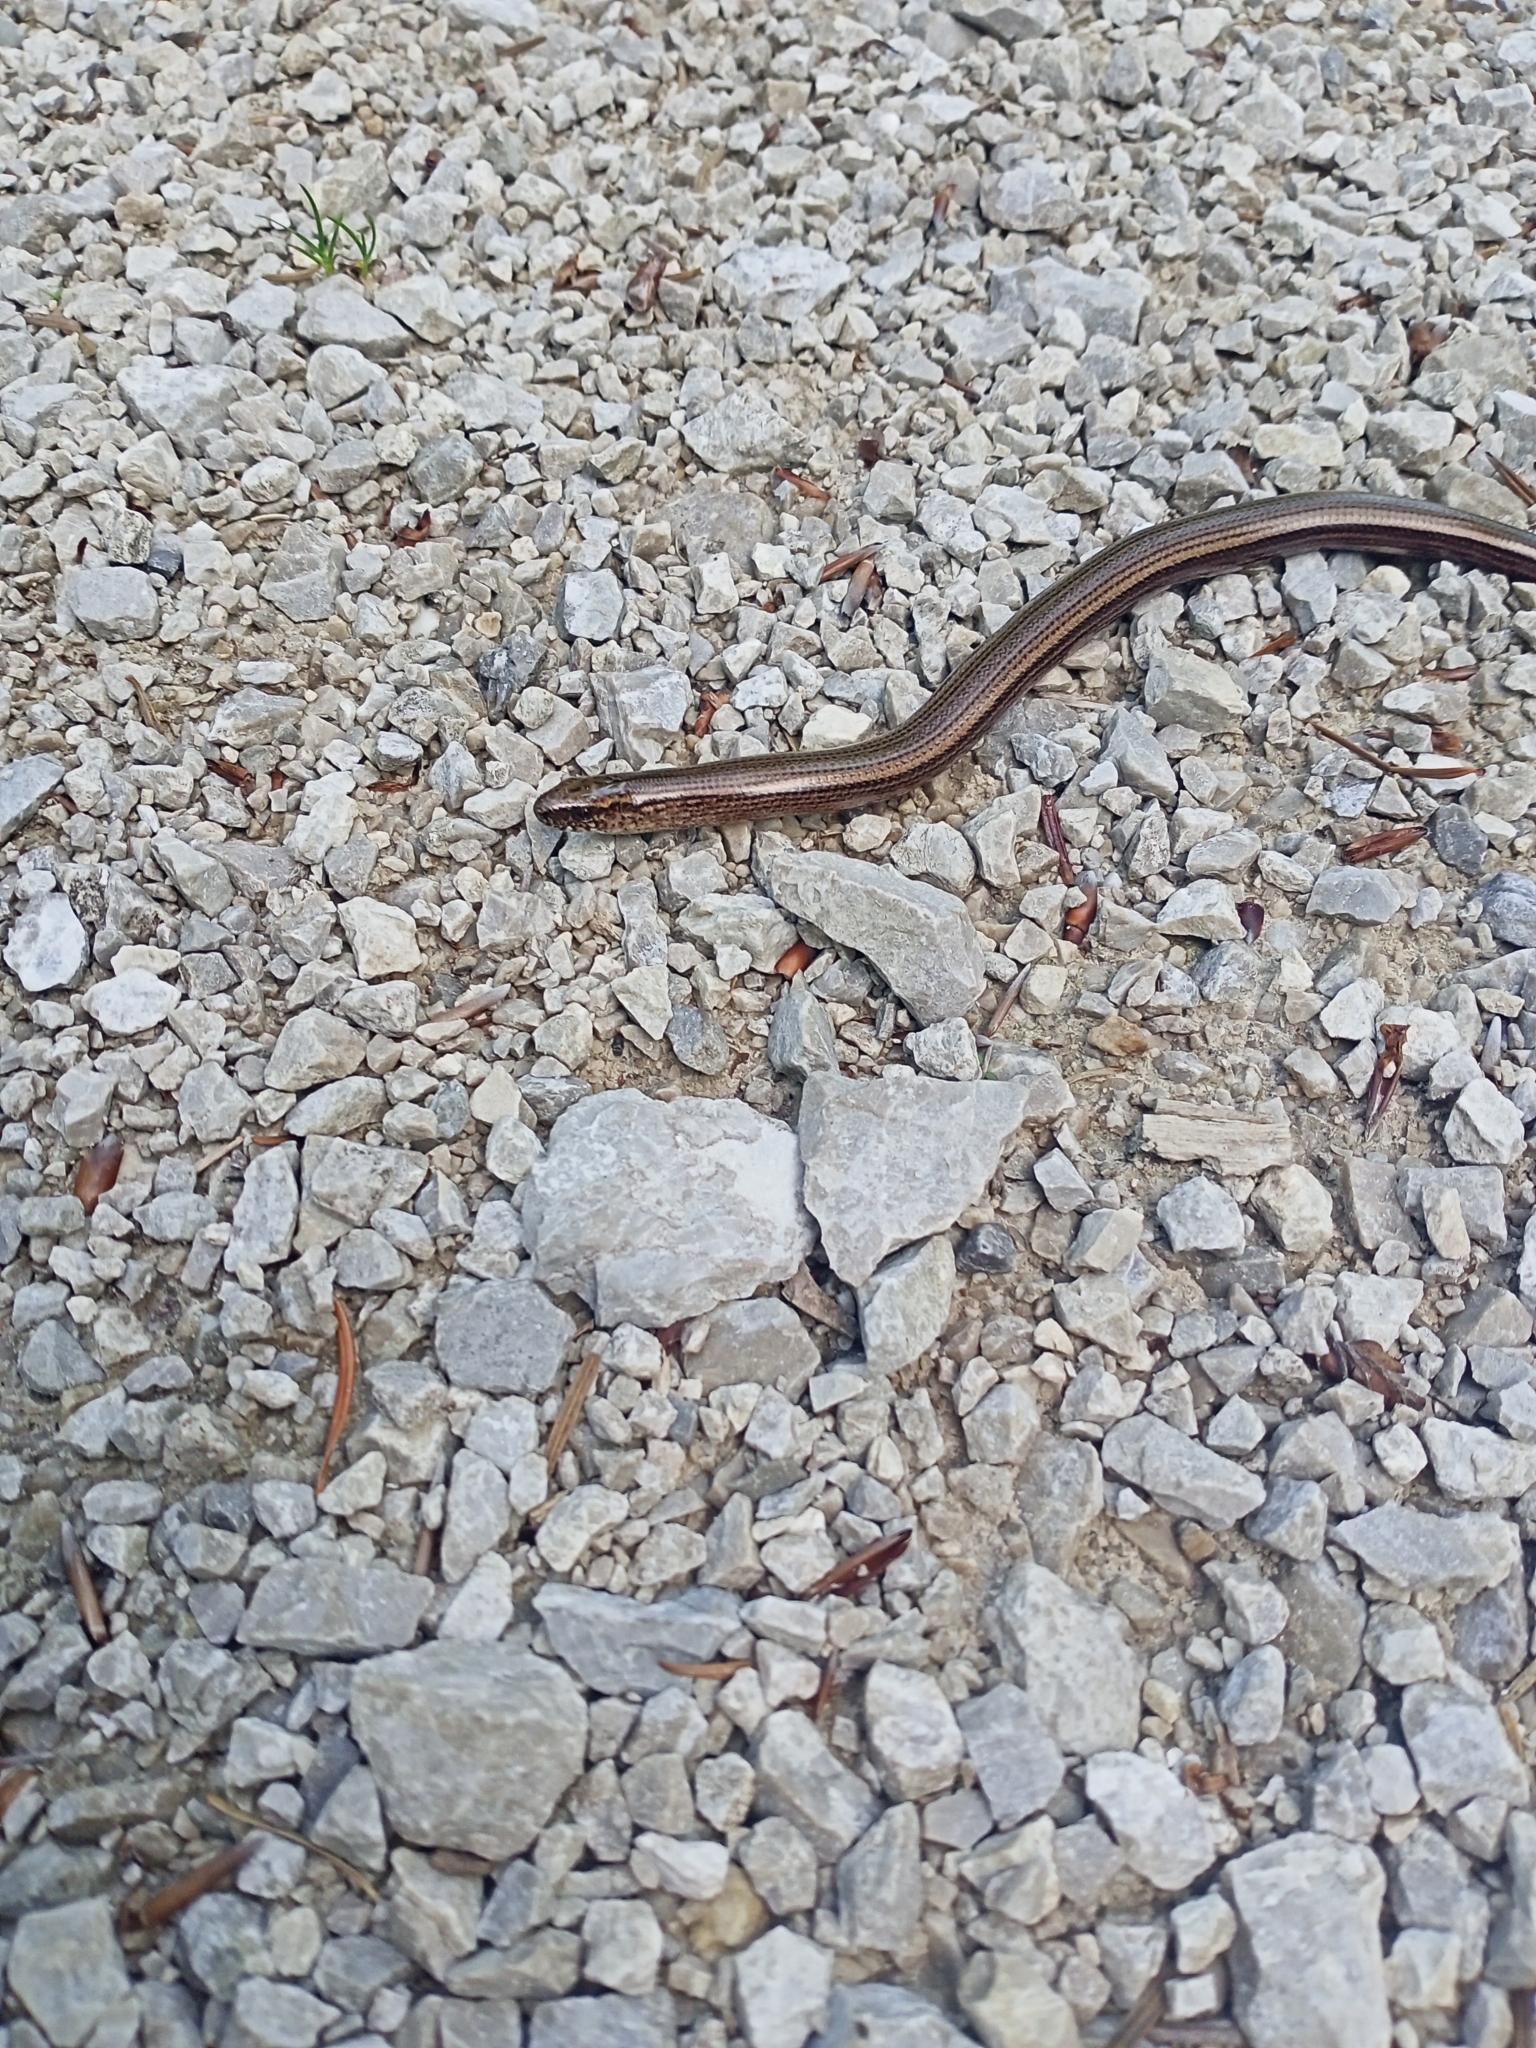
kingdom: Animalia
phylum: Chordata
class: Squamata
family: Anguidae
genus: Anguis
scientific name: Anguis fragilis
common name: Slow worm
